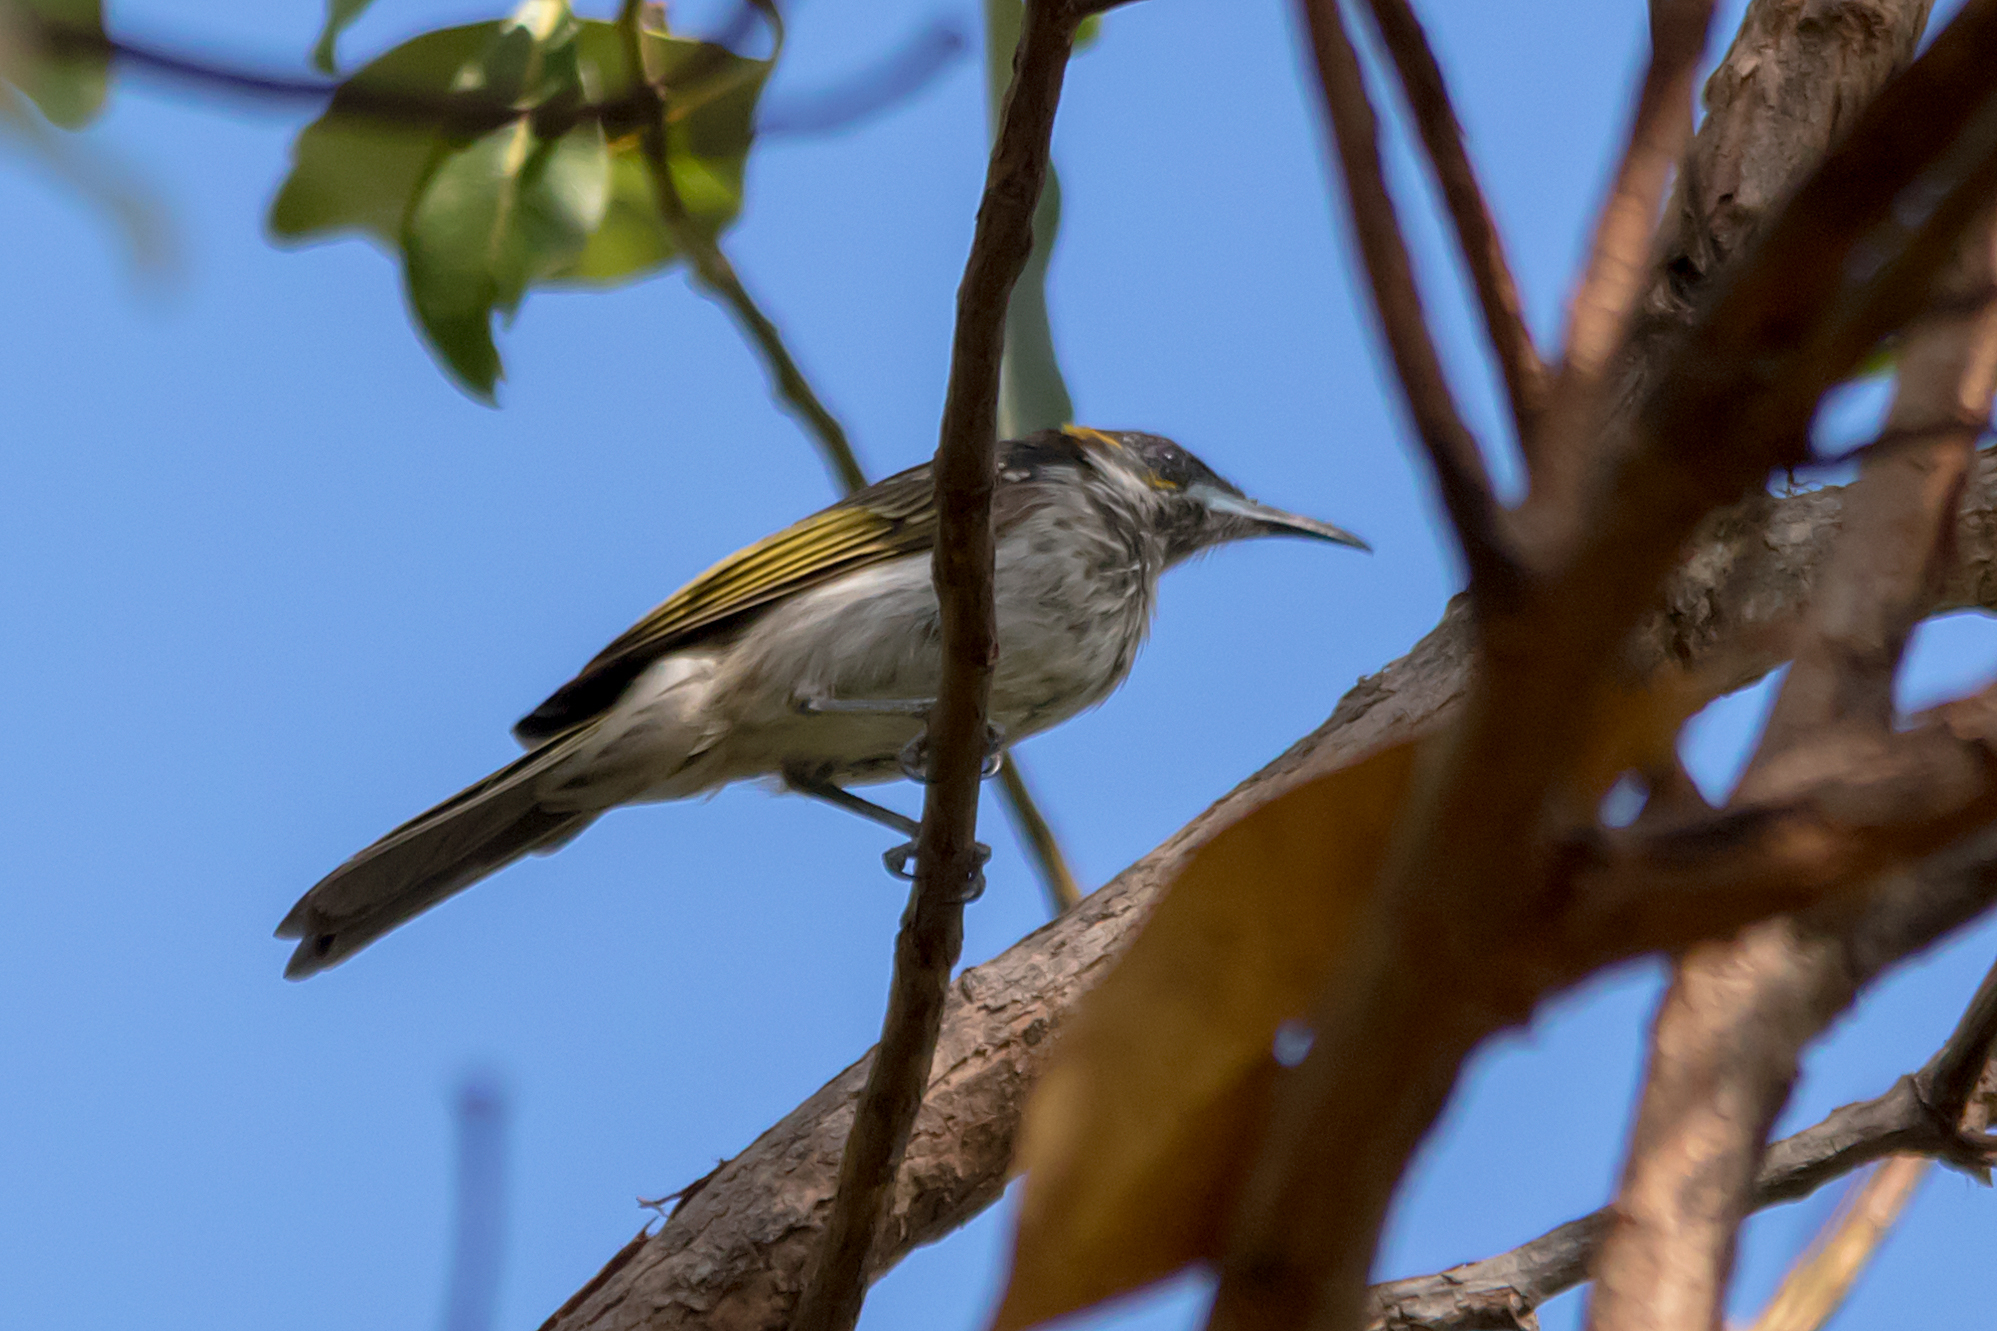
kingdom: Animalia
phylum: Chordata
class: Aves
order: Passeriformes
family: Meliphagidae
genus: Trichodere
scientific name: Trichodere cockerelli
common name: White-streaked honeyeater
